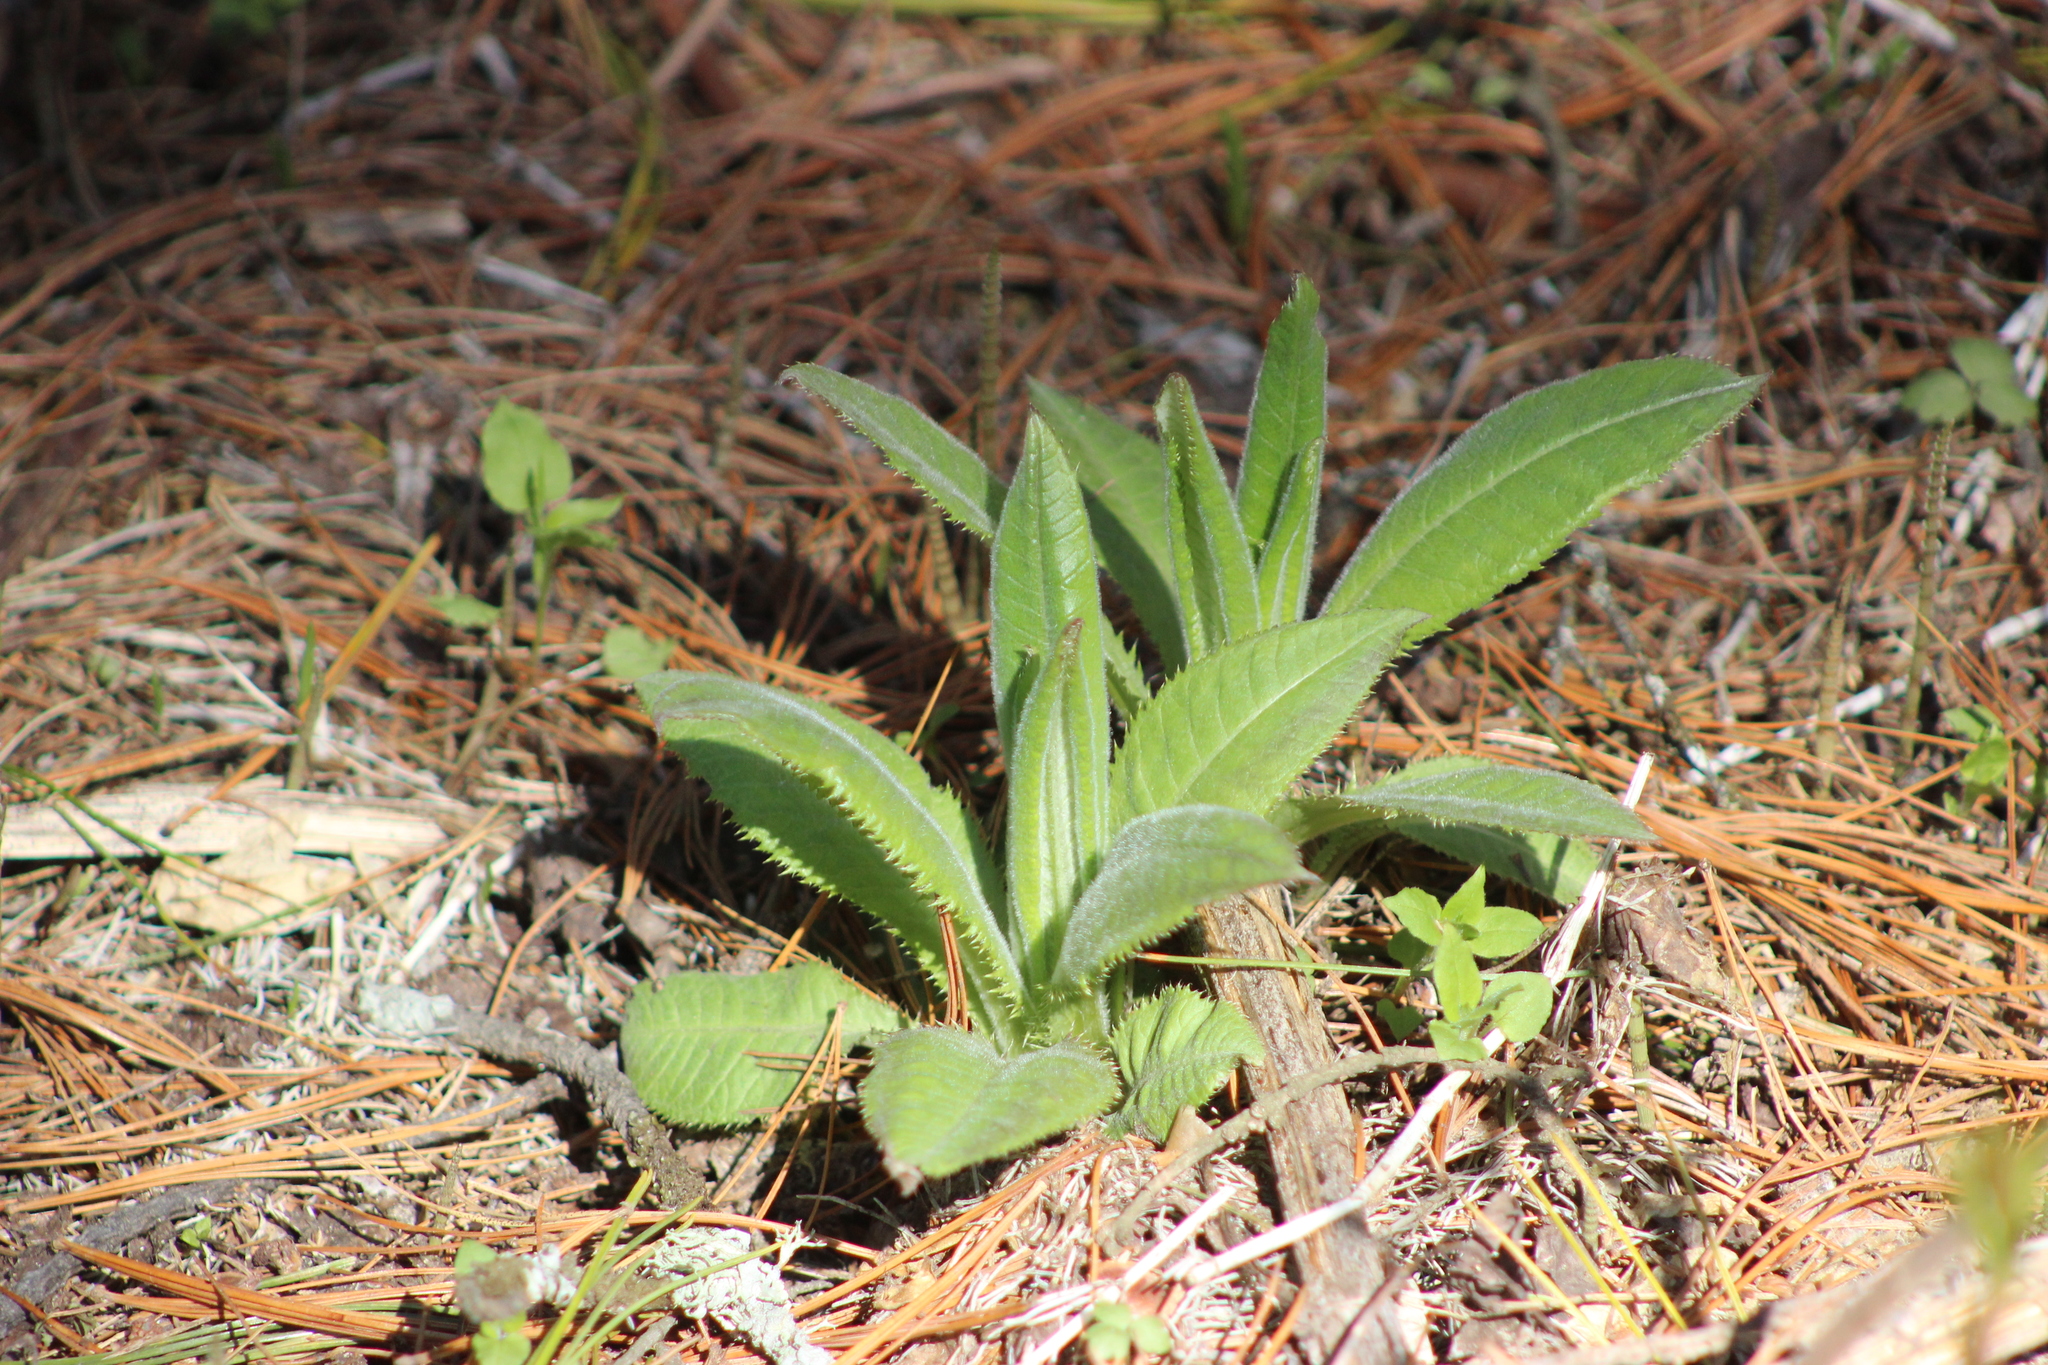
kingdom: Plantae
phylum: Tracheophyta
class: Magnoliopsida
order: Asterales
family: Asteraceae
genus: Cirsium
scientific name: Cirsium arvense
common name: Creeping thistle
